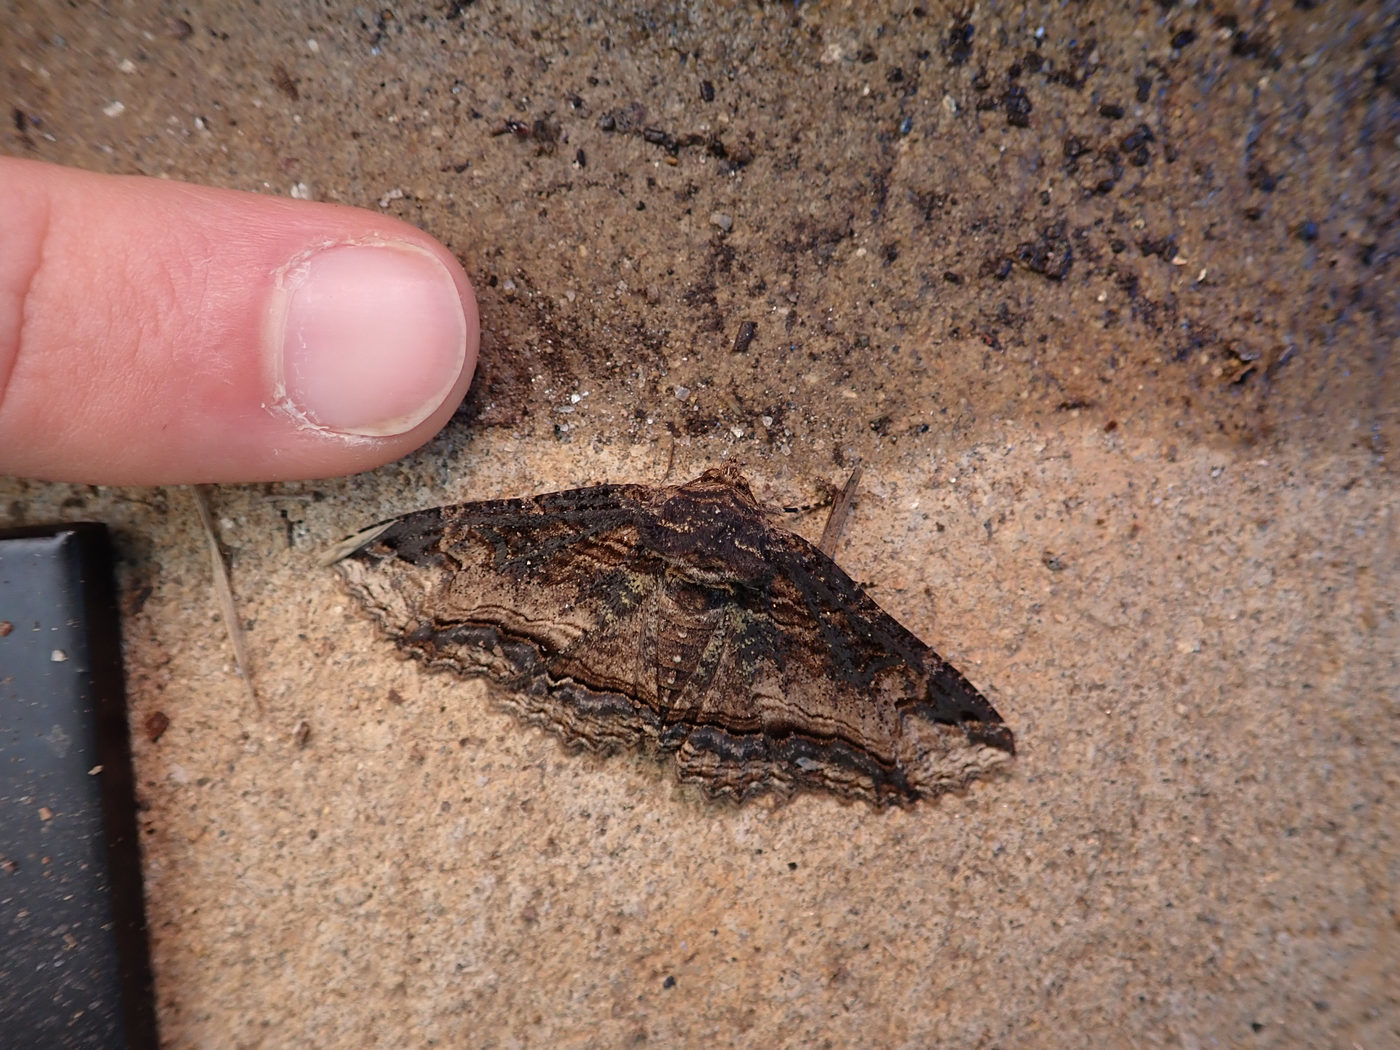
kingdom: Animalia
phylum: Arthropoda
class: Insecta
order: Lepidoptera
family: Erebidae
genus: Zale
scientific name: Zale minerea
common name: Colorful zale moth
